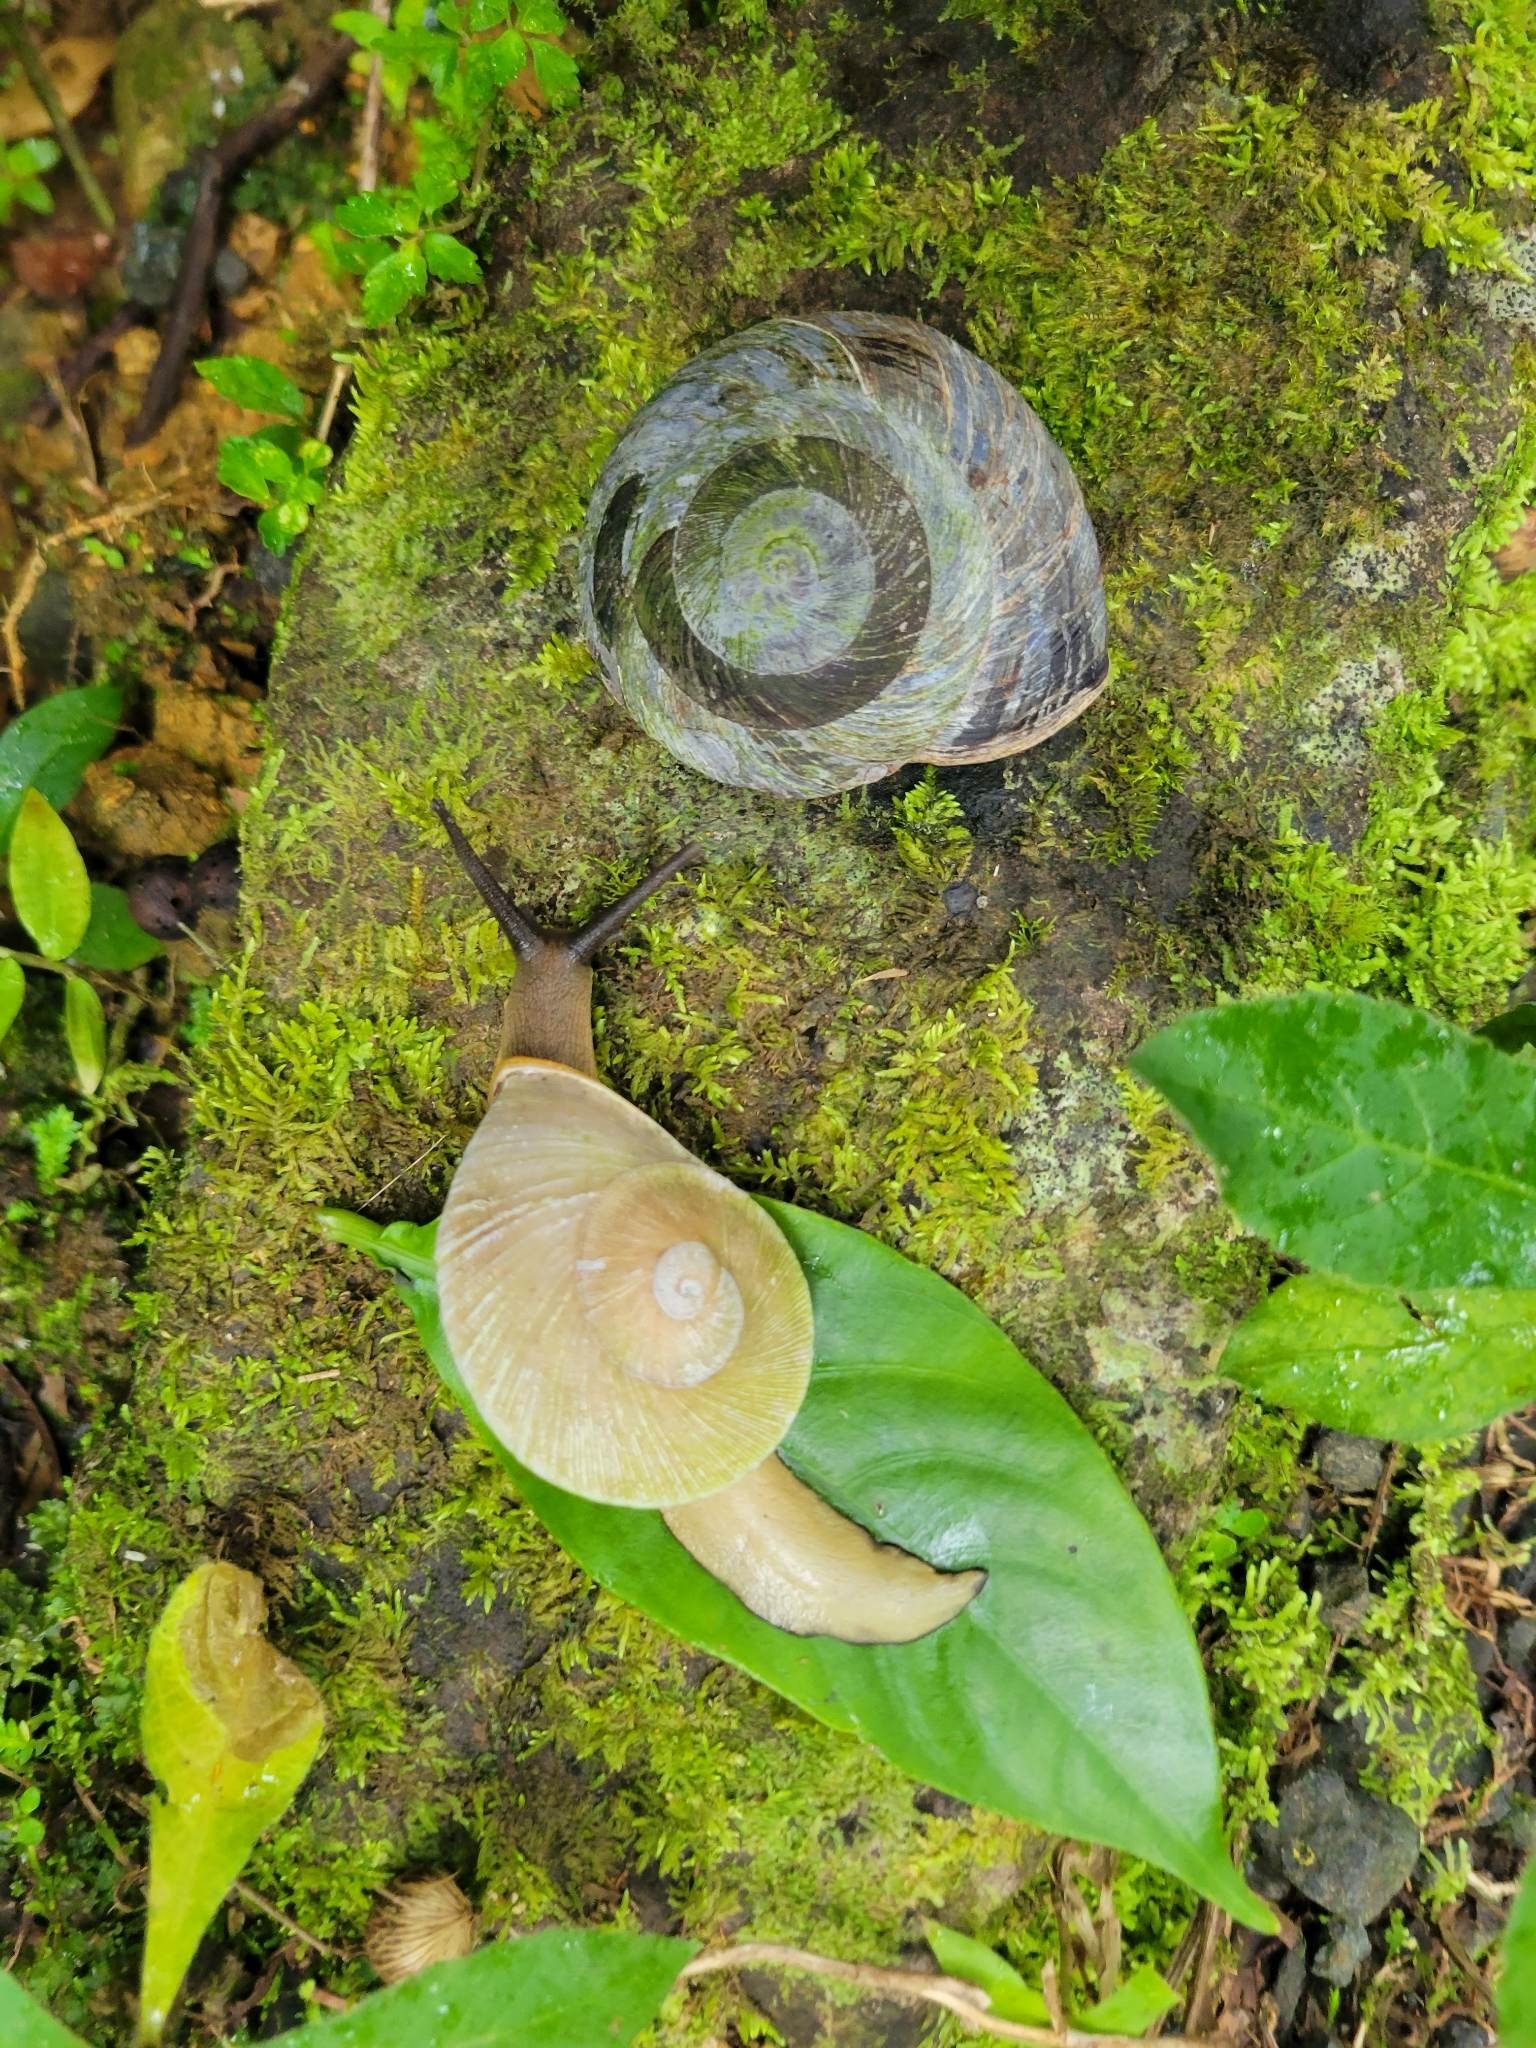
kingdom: Animalia
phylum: Mollusca
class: Gastropoda
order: Stylommatophora
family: Solaropsidae
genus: Caracolus
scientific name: Caracolus carocolla
